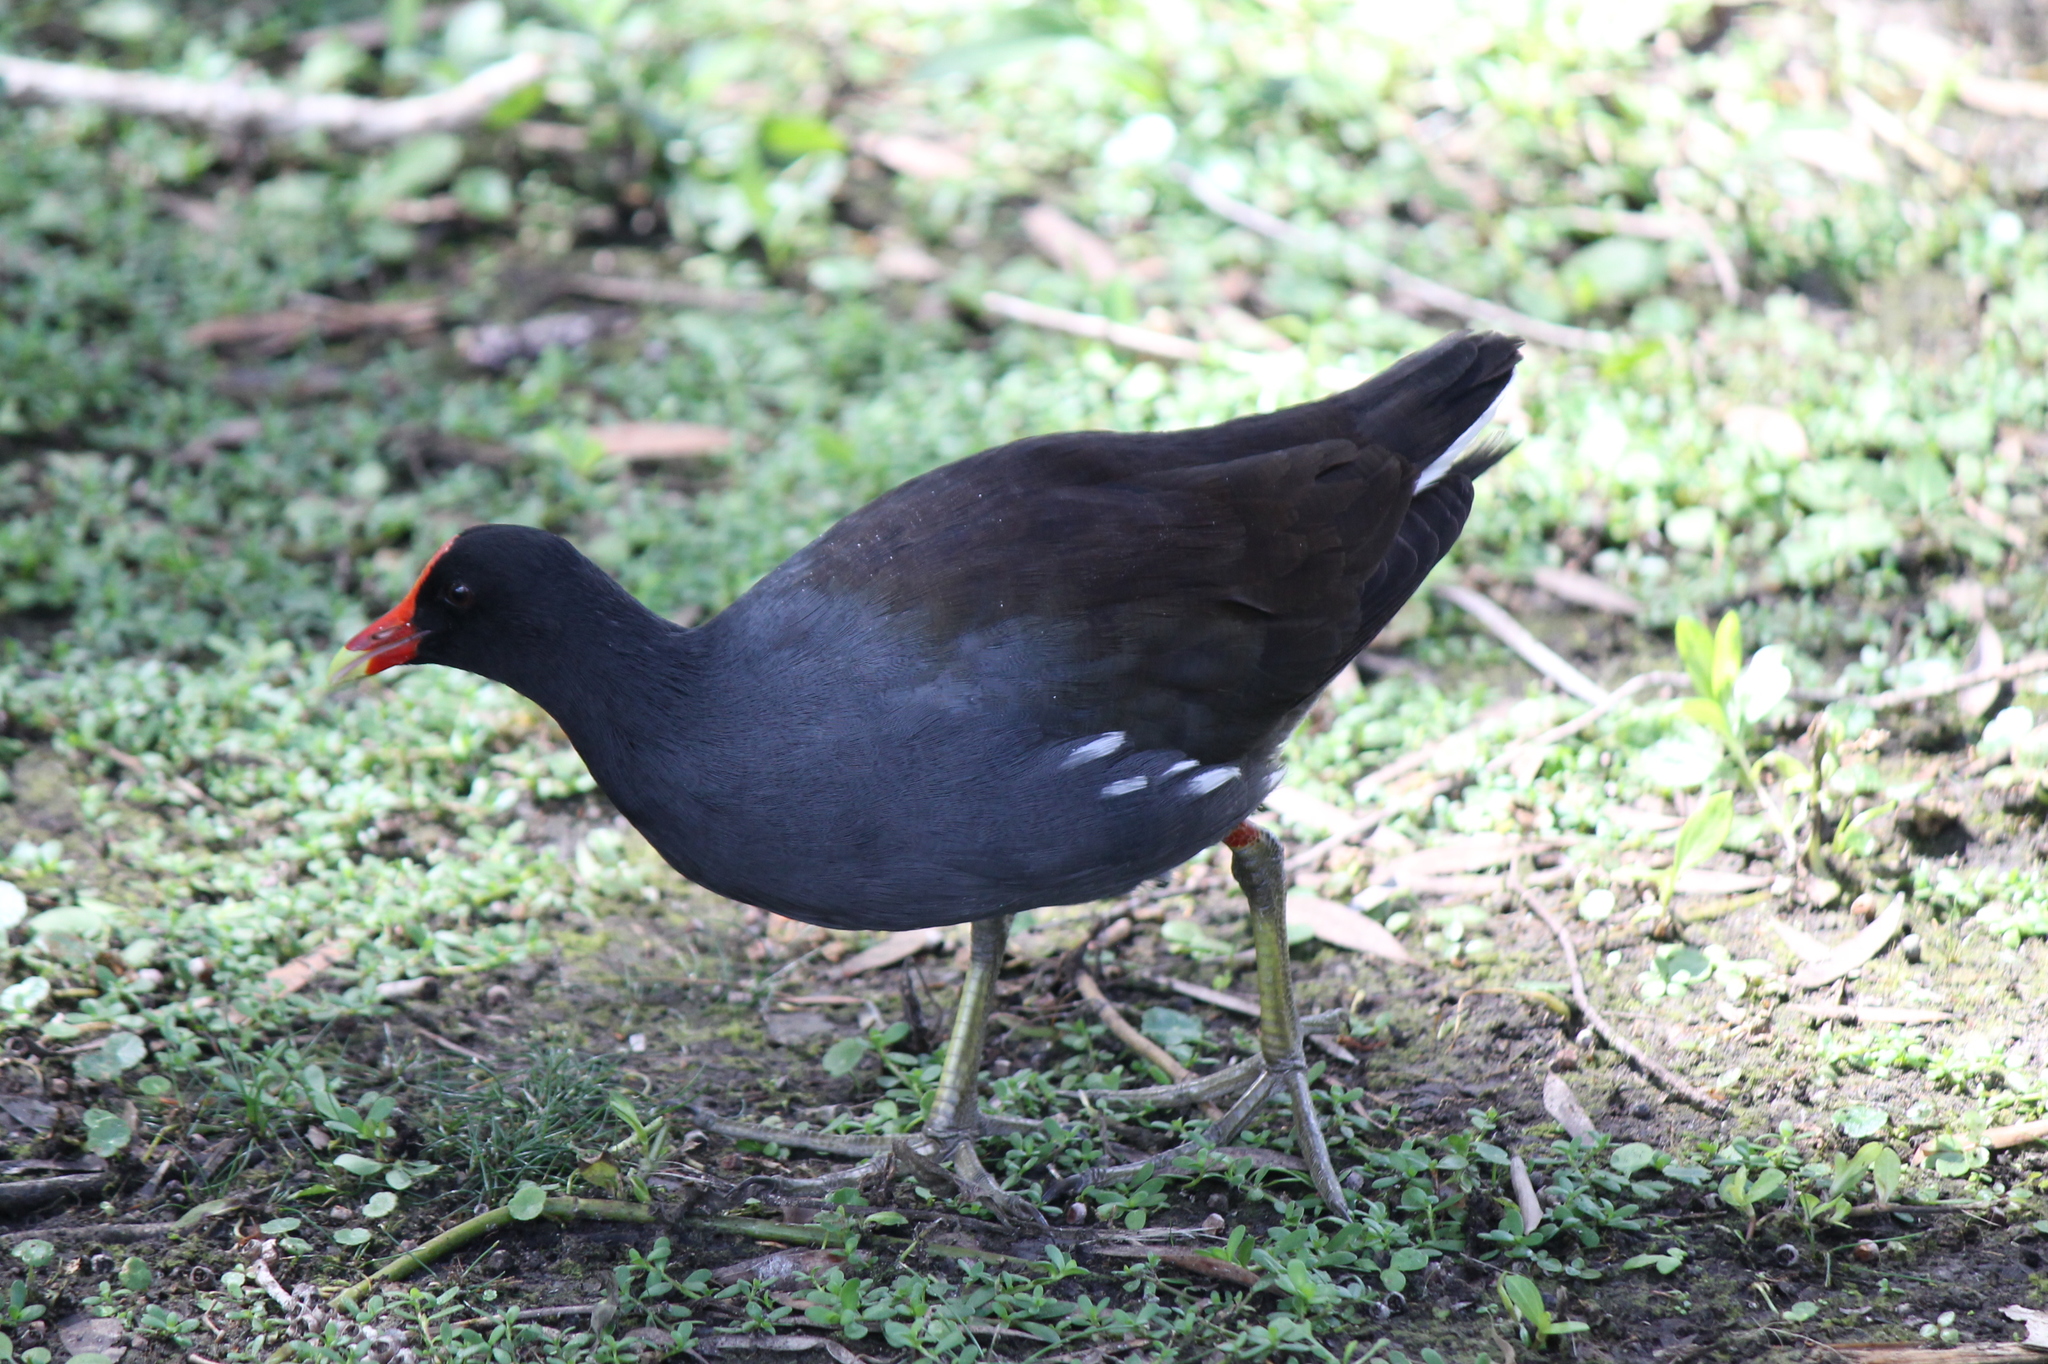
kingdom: Animalia
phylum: Chordata
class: Aves
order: Gruiformes
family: Rallidae
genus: Gallinula
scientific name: Gallinula chloropus
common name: Common moorhen
